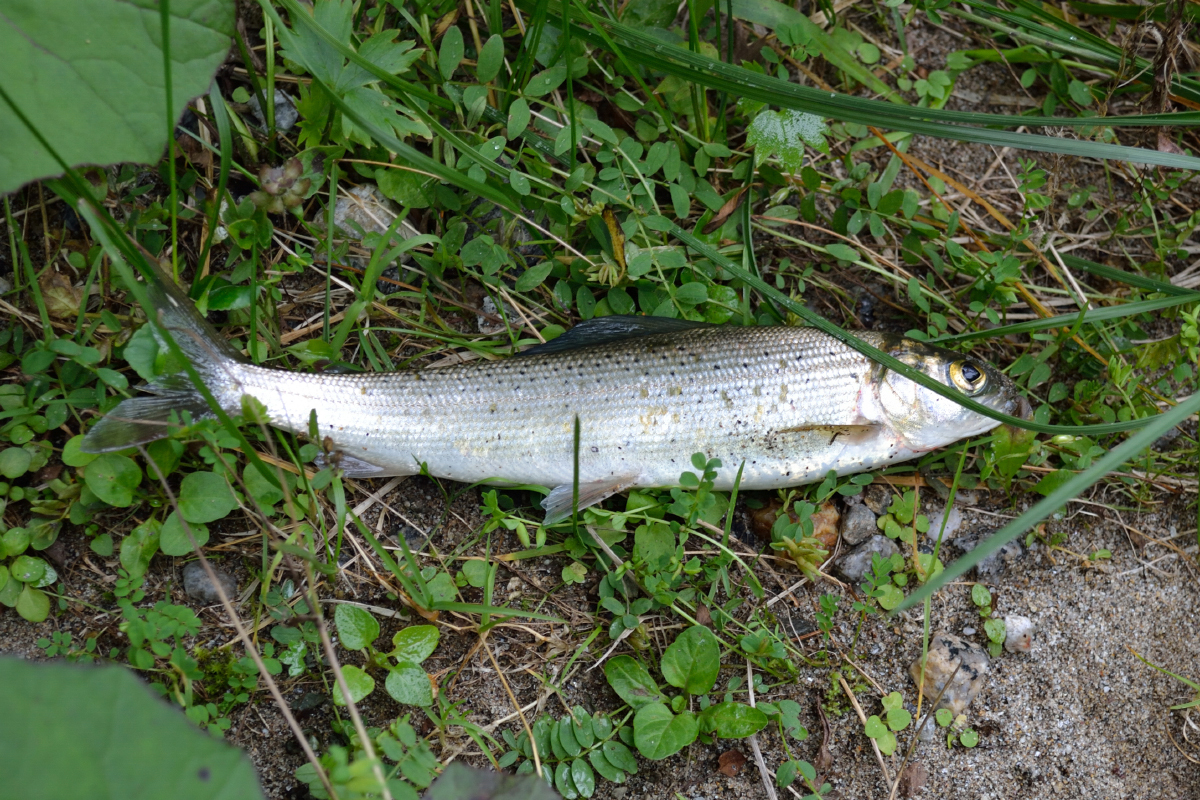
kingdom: Animalia
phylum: Chordata
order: Salmoniformes
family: Salmonidae
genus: Thymallus
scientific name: Thymallus arcticus
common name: Arctic grayling
